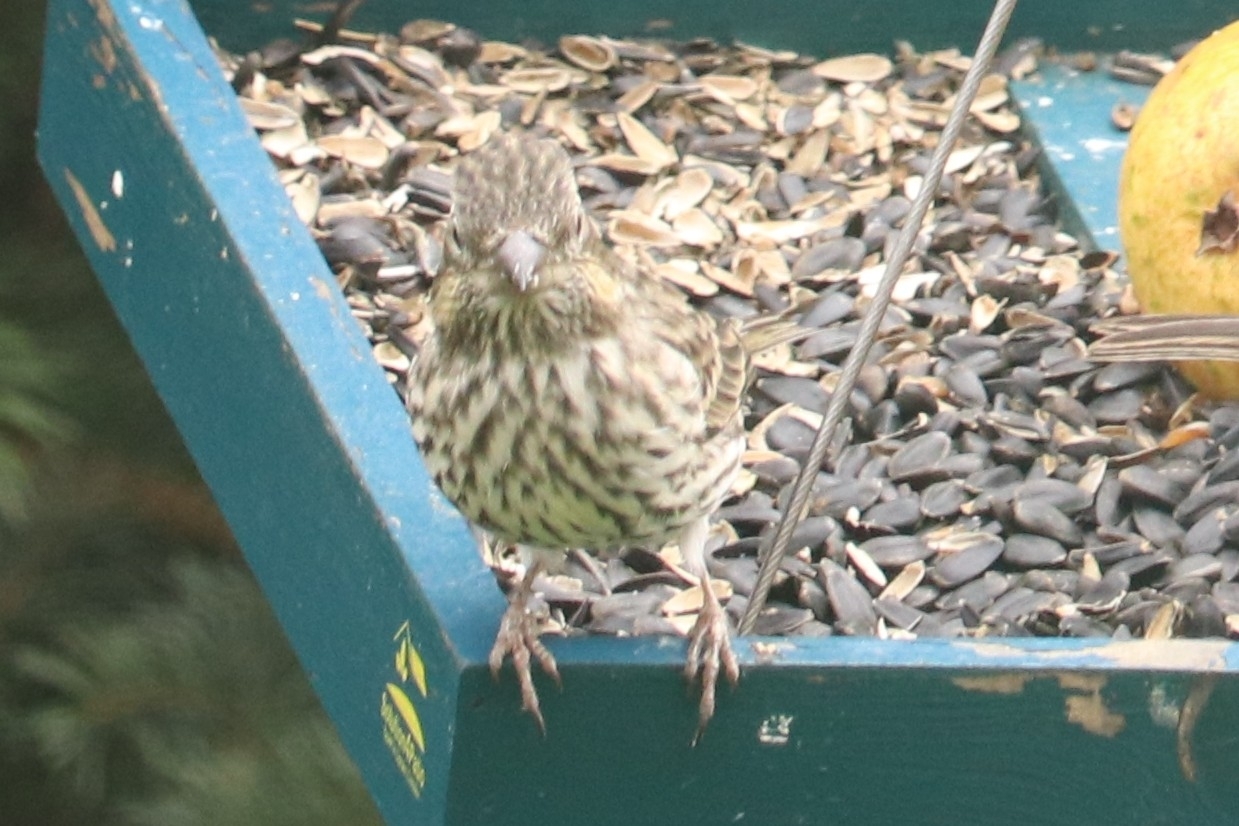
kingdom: Animalia
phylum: Chordata
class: Aves
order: Passeriformes
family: Fringillidae
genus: Haemorhous
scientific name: Haemorhous cassinii
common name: Cassin's finch
